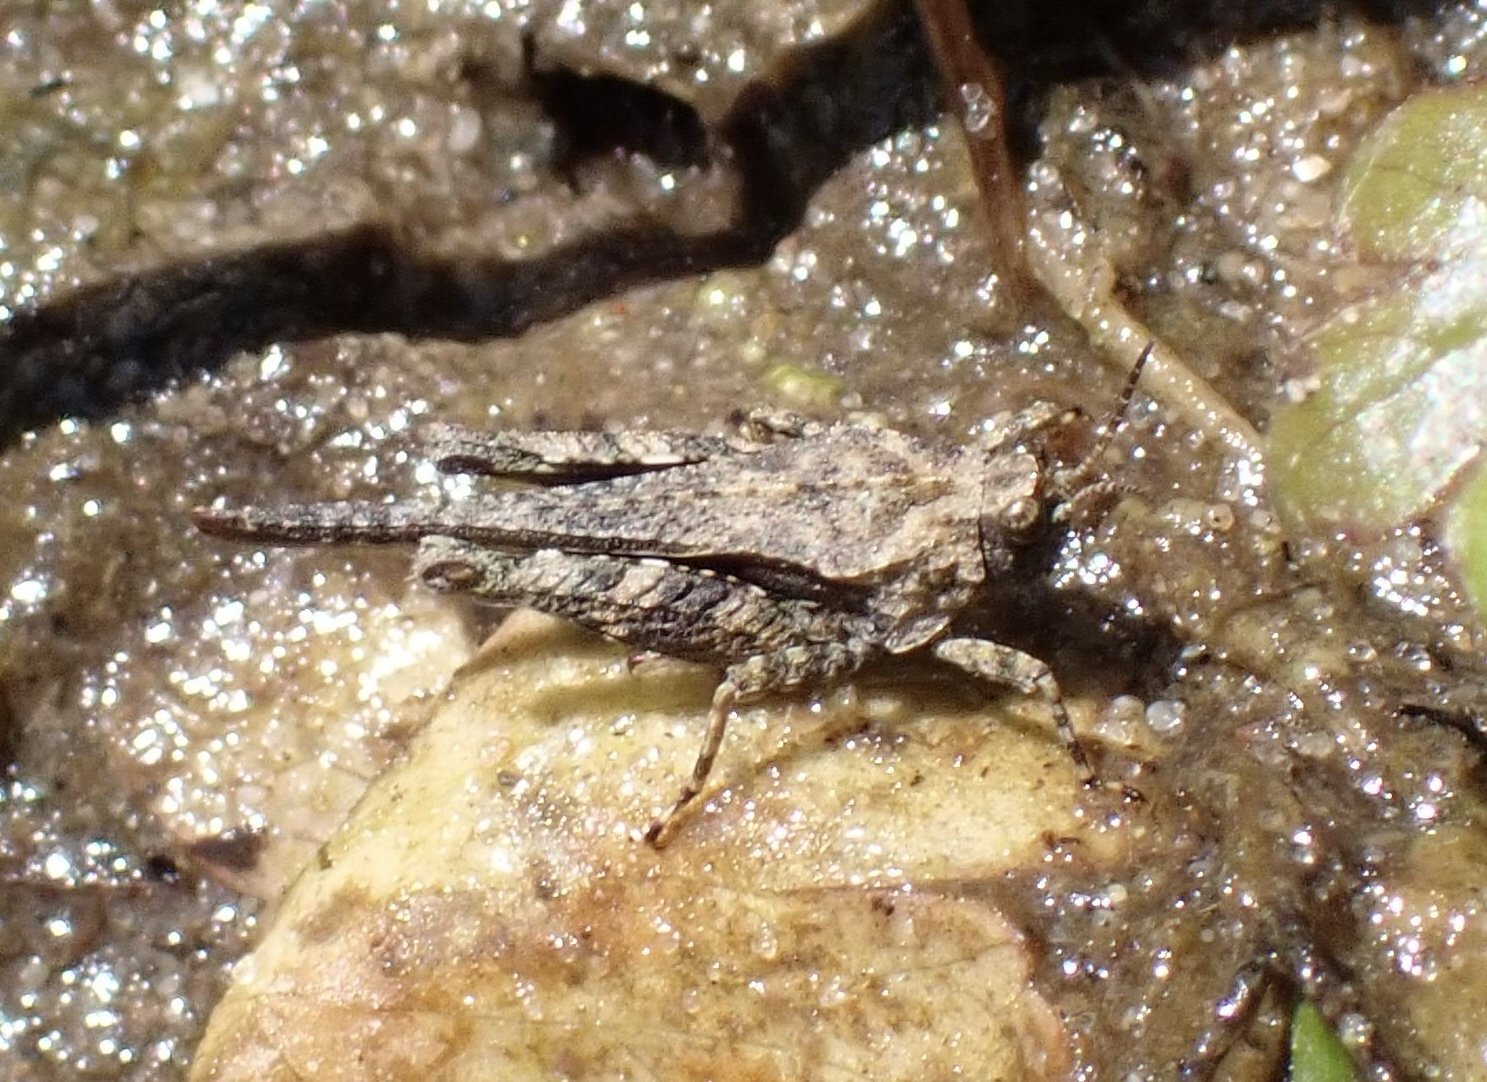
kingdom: Animalia
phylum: Arthropoda
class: Insecta
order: Orthoptera
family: Tetrigidae
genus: Tetrix
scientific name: Tetrix ceperoi
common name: Cepero's ground-hopper
